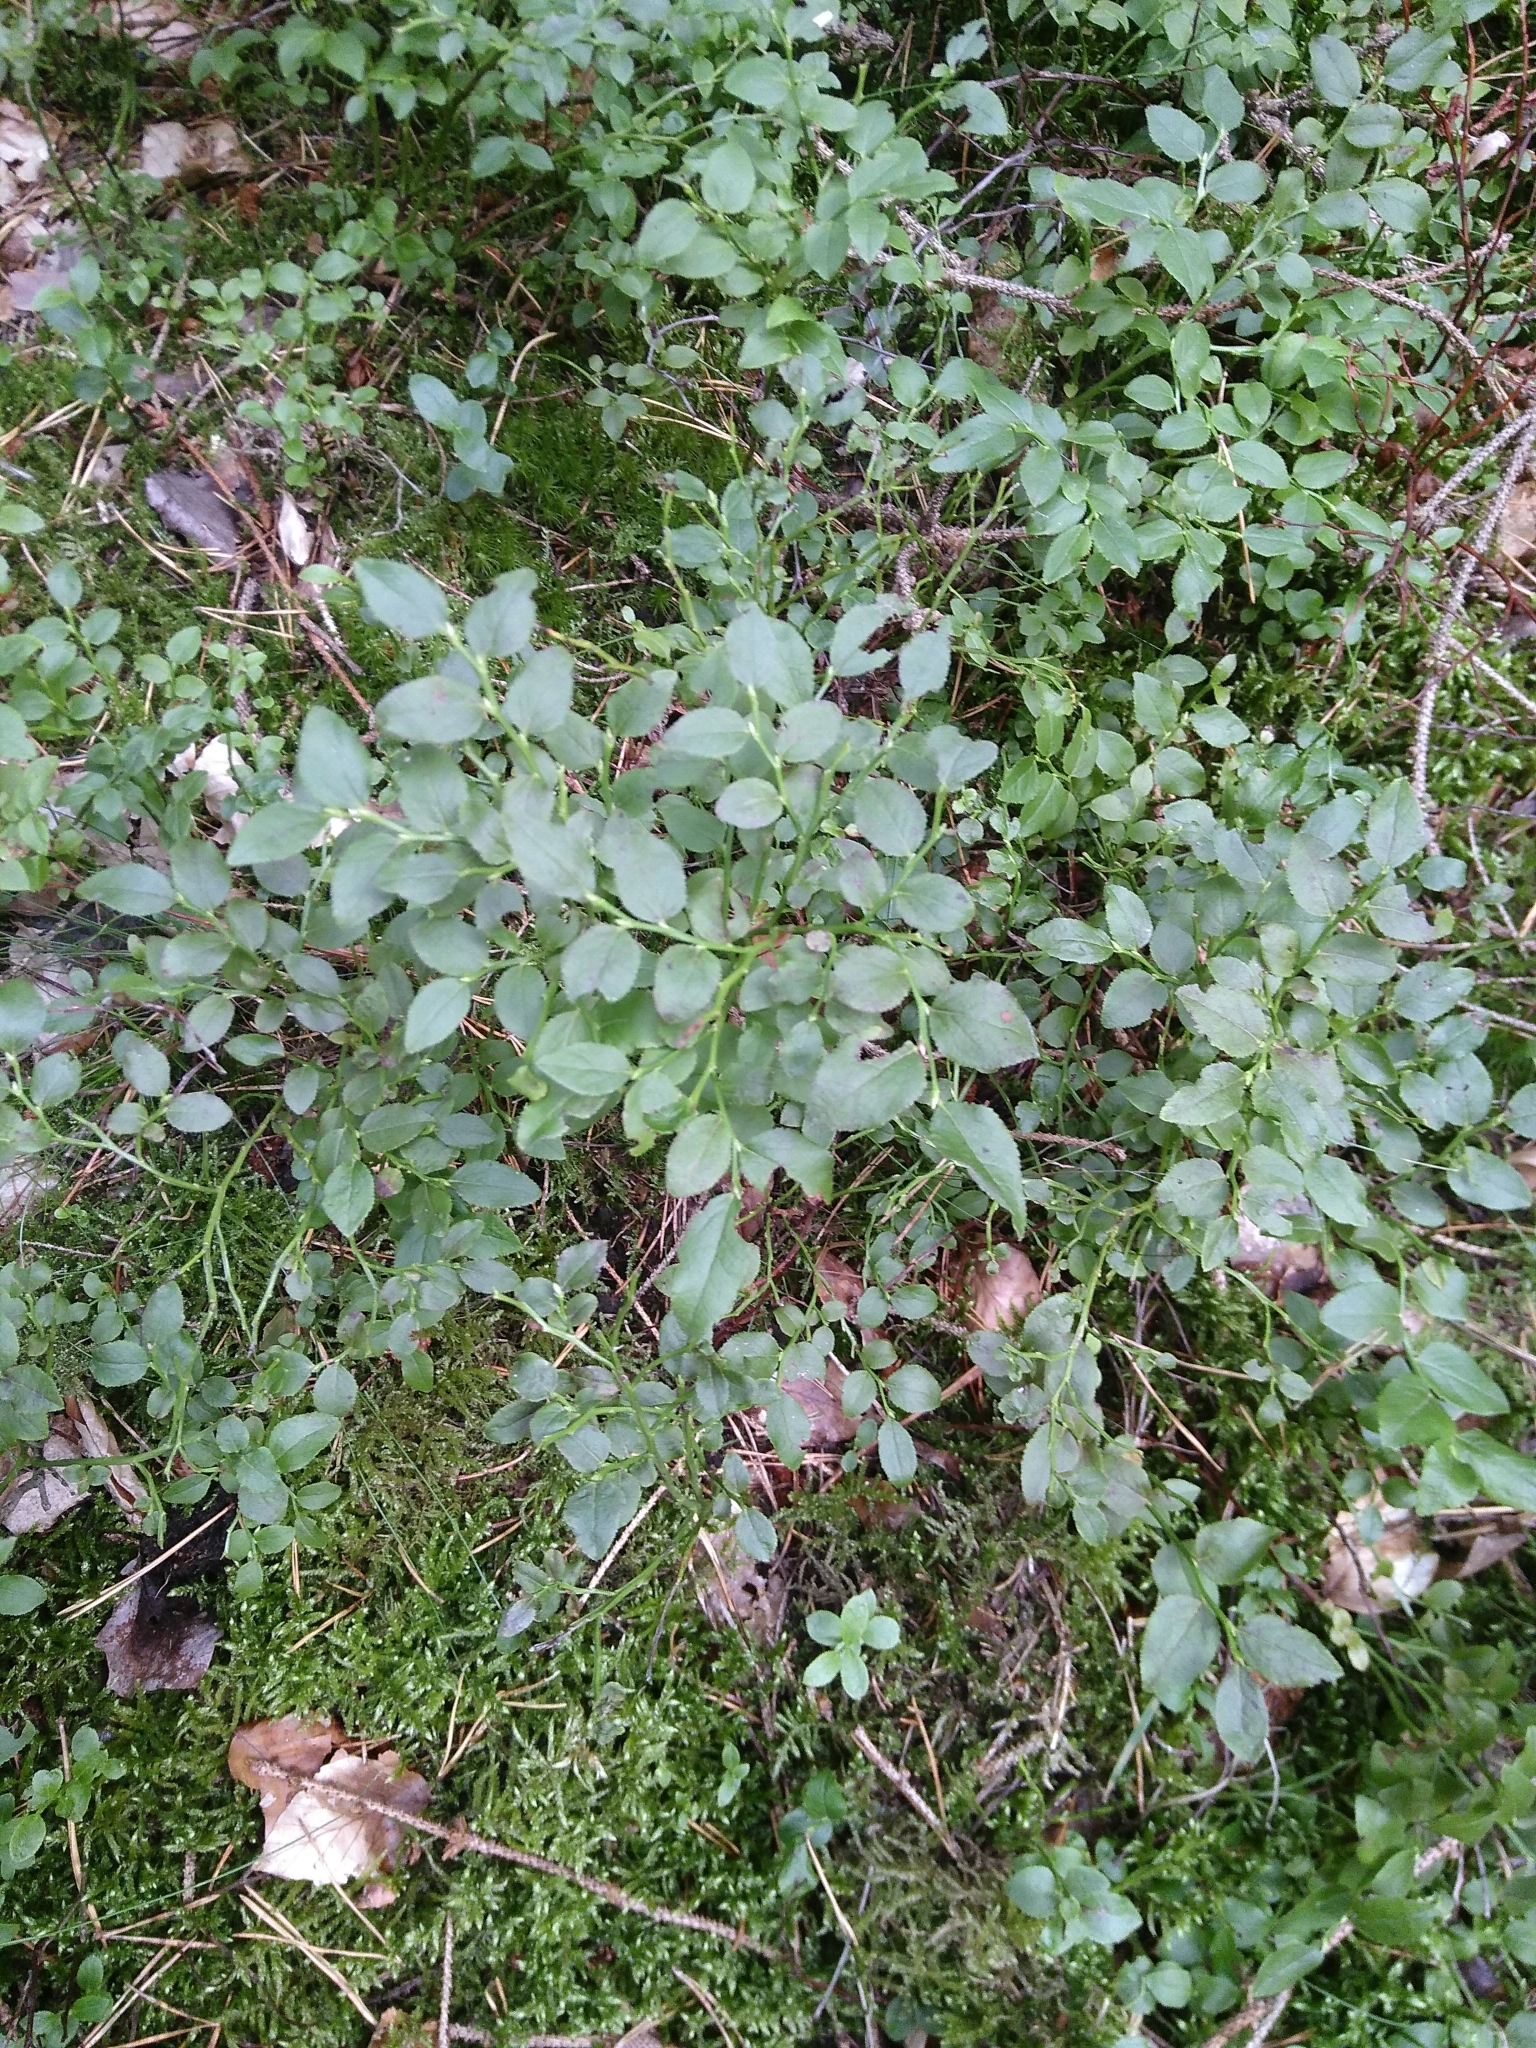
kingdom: Plantae
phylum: Tracheophyta
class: Magnoliopsida
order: Ericales
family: Ericaceae
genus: Vaccinium
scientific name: Vaccinium myrtillus
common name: Bilberry
